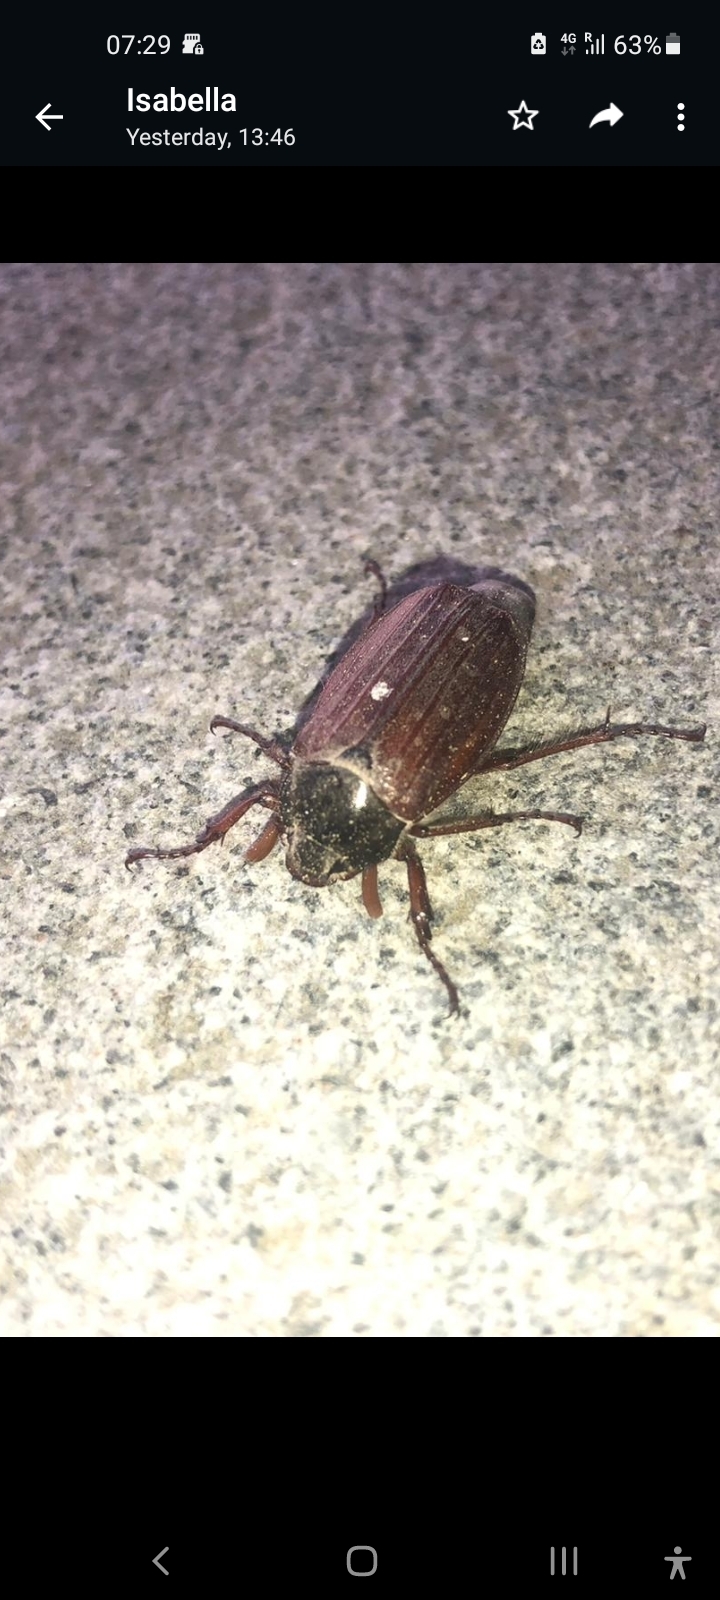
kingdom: Animalia
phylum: Arthropoda
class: Insecta
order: Coleoptera
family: Scarabaeidae
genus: Melolontha
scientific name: Melolontha melolontha
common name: Cockchafer maybeetle
